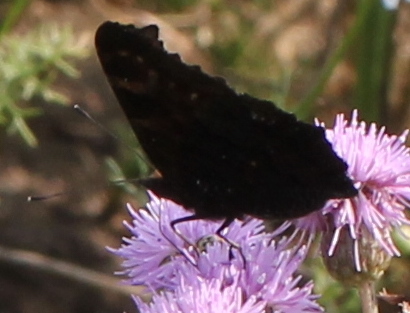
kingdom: Animalia
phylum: Arthropoda
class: Insecta
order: Lepidoptera
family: Nymphalidae
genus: Aglais
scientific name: Aglais io
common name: Peacock
